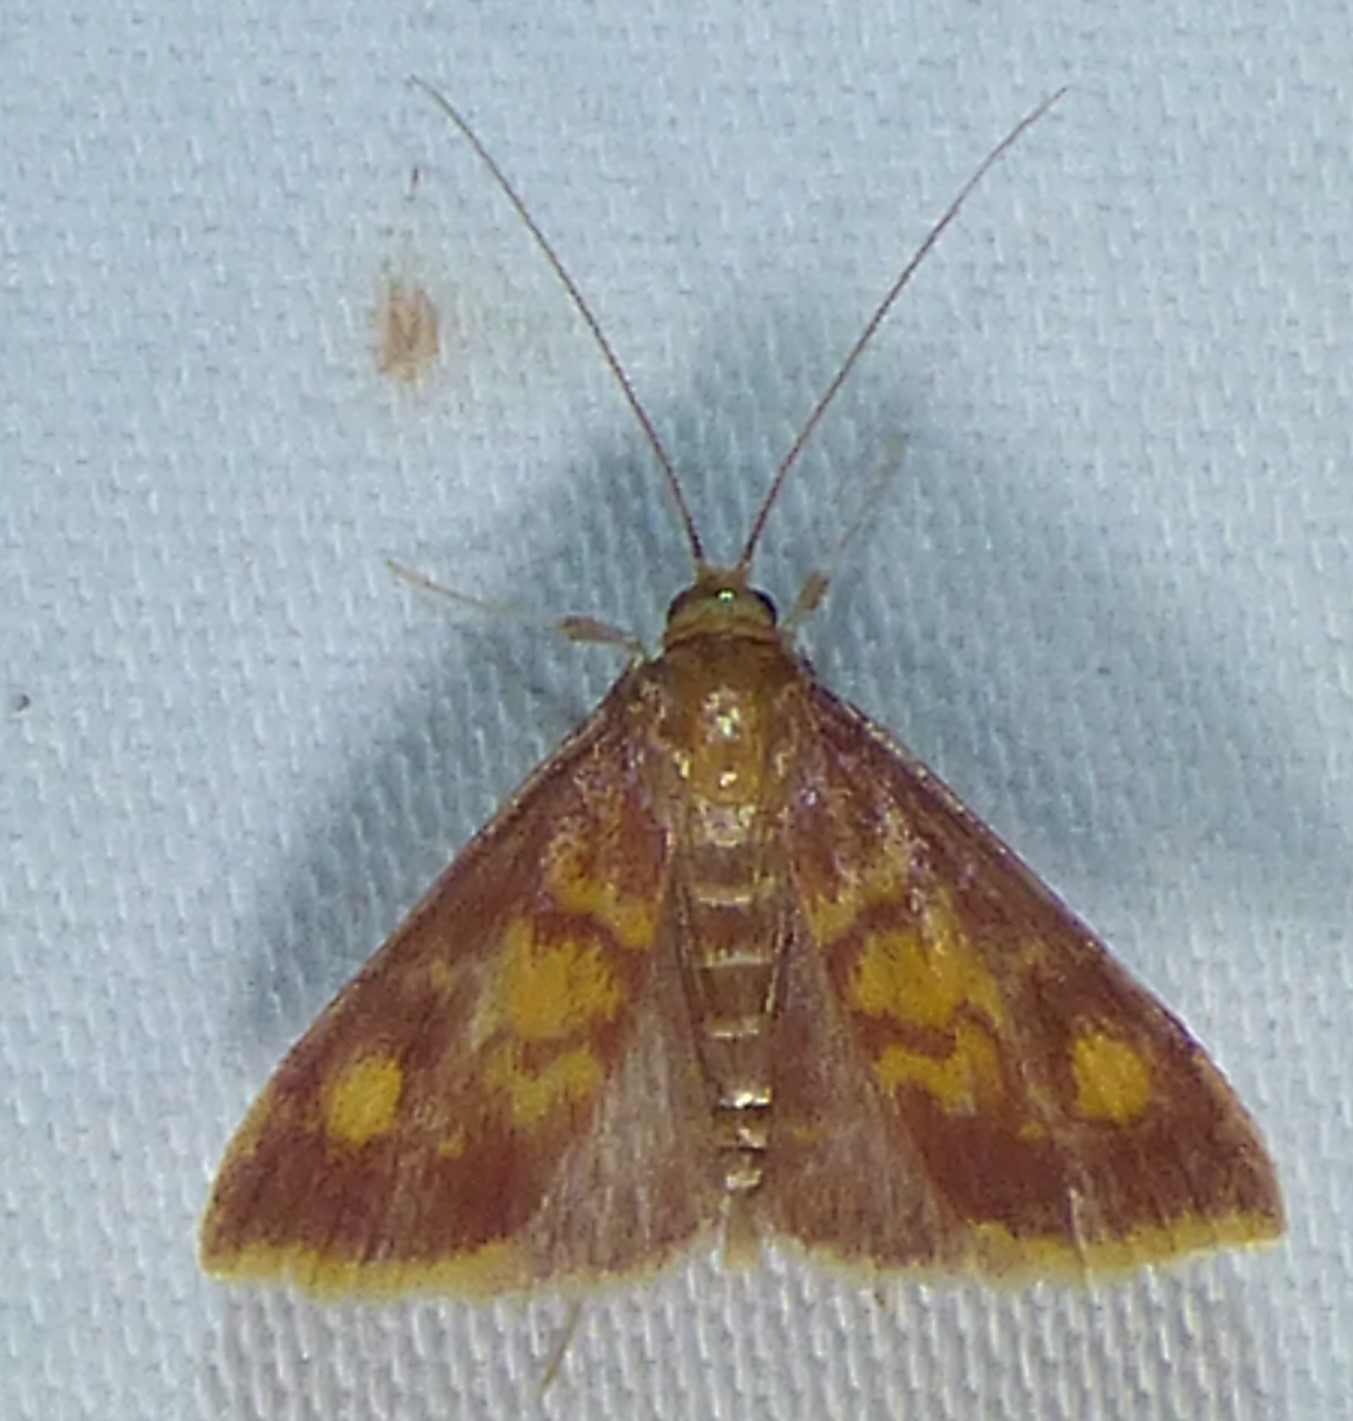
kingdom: Animalia
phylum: Arthropoda
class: Insecta
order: Lepidoptera
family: Crambidae
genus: Pyrausta
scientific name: Pyrausta acrionalis
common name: Mint-loving pyrausta moth
